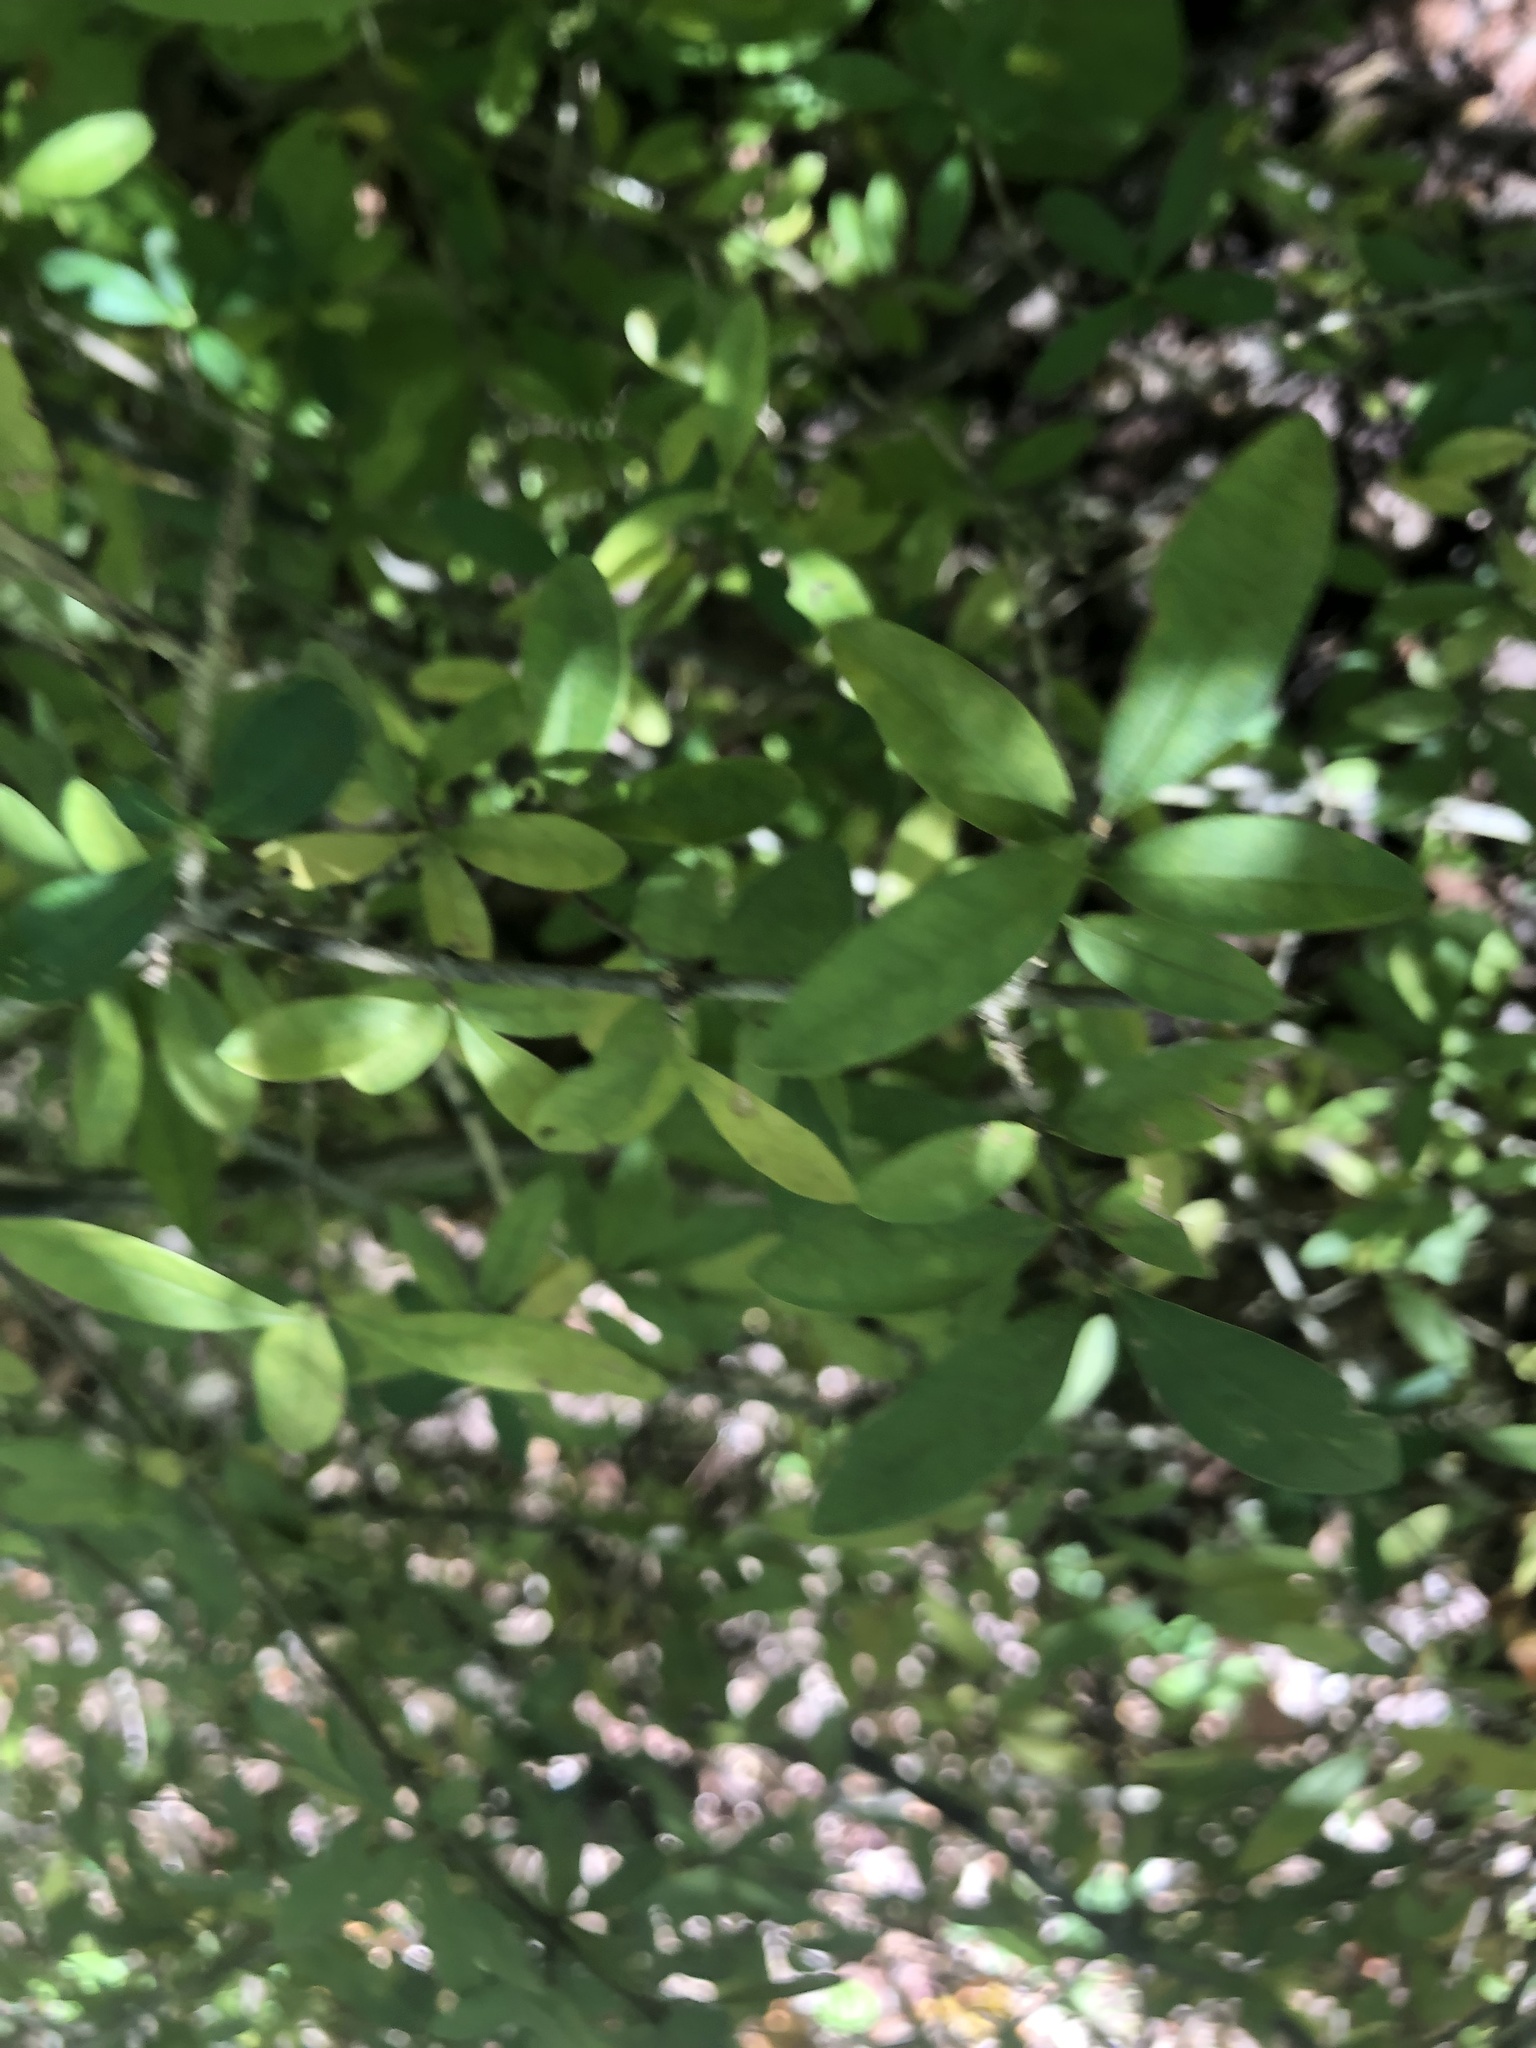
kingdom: Plantae
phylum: Tracheophyta
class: Magnoliopsida
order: Lamiales
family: Oleaceae
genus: Ligustrum
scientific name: Ligustrum quihoui
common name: Waxyleaf privet
